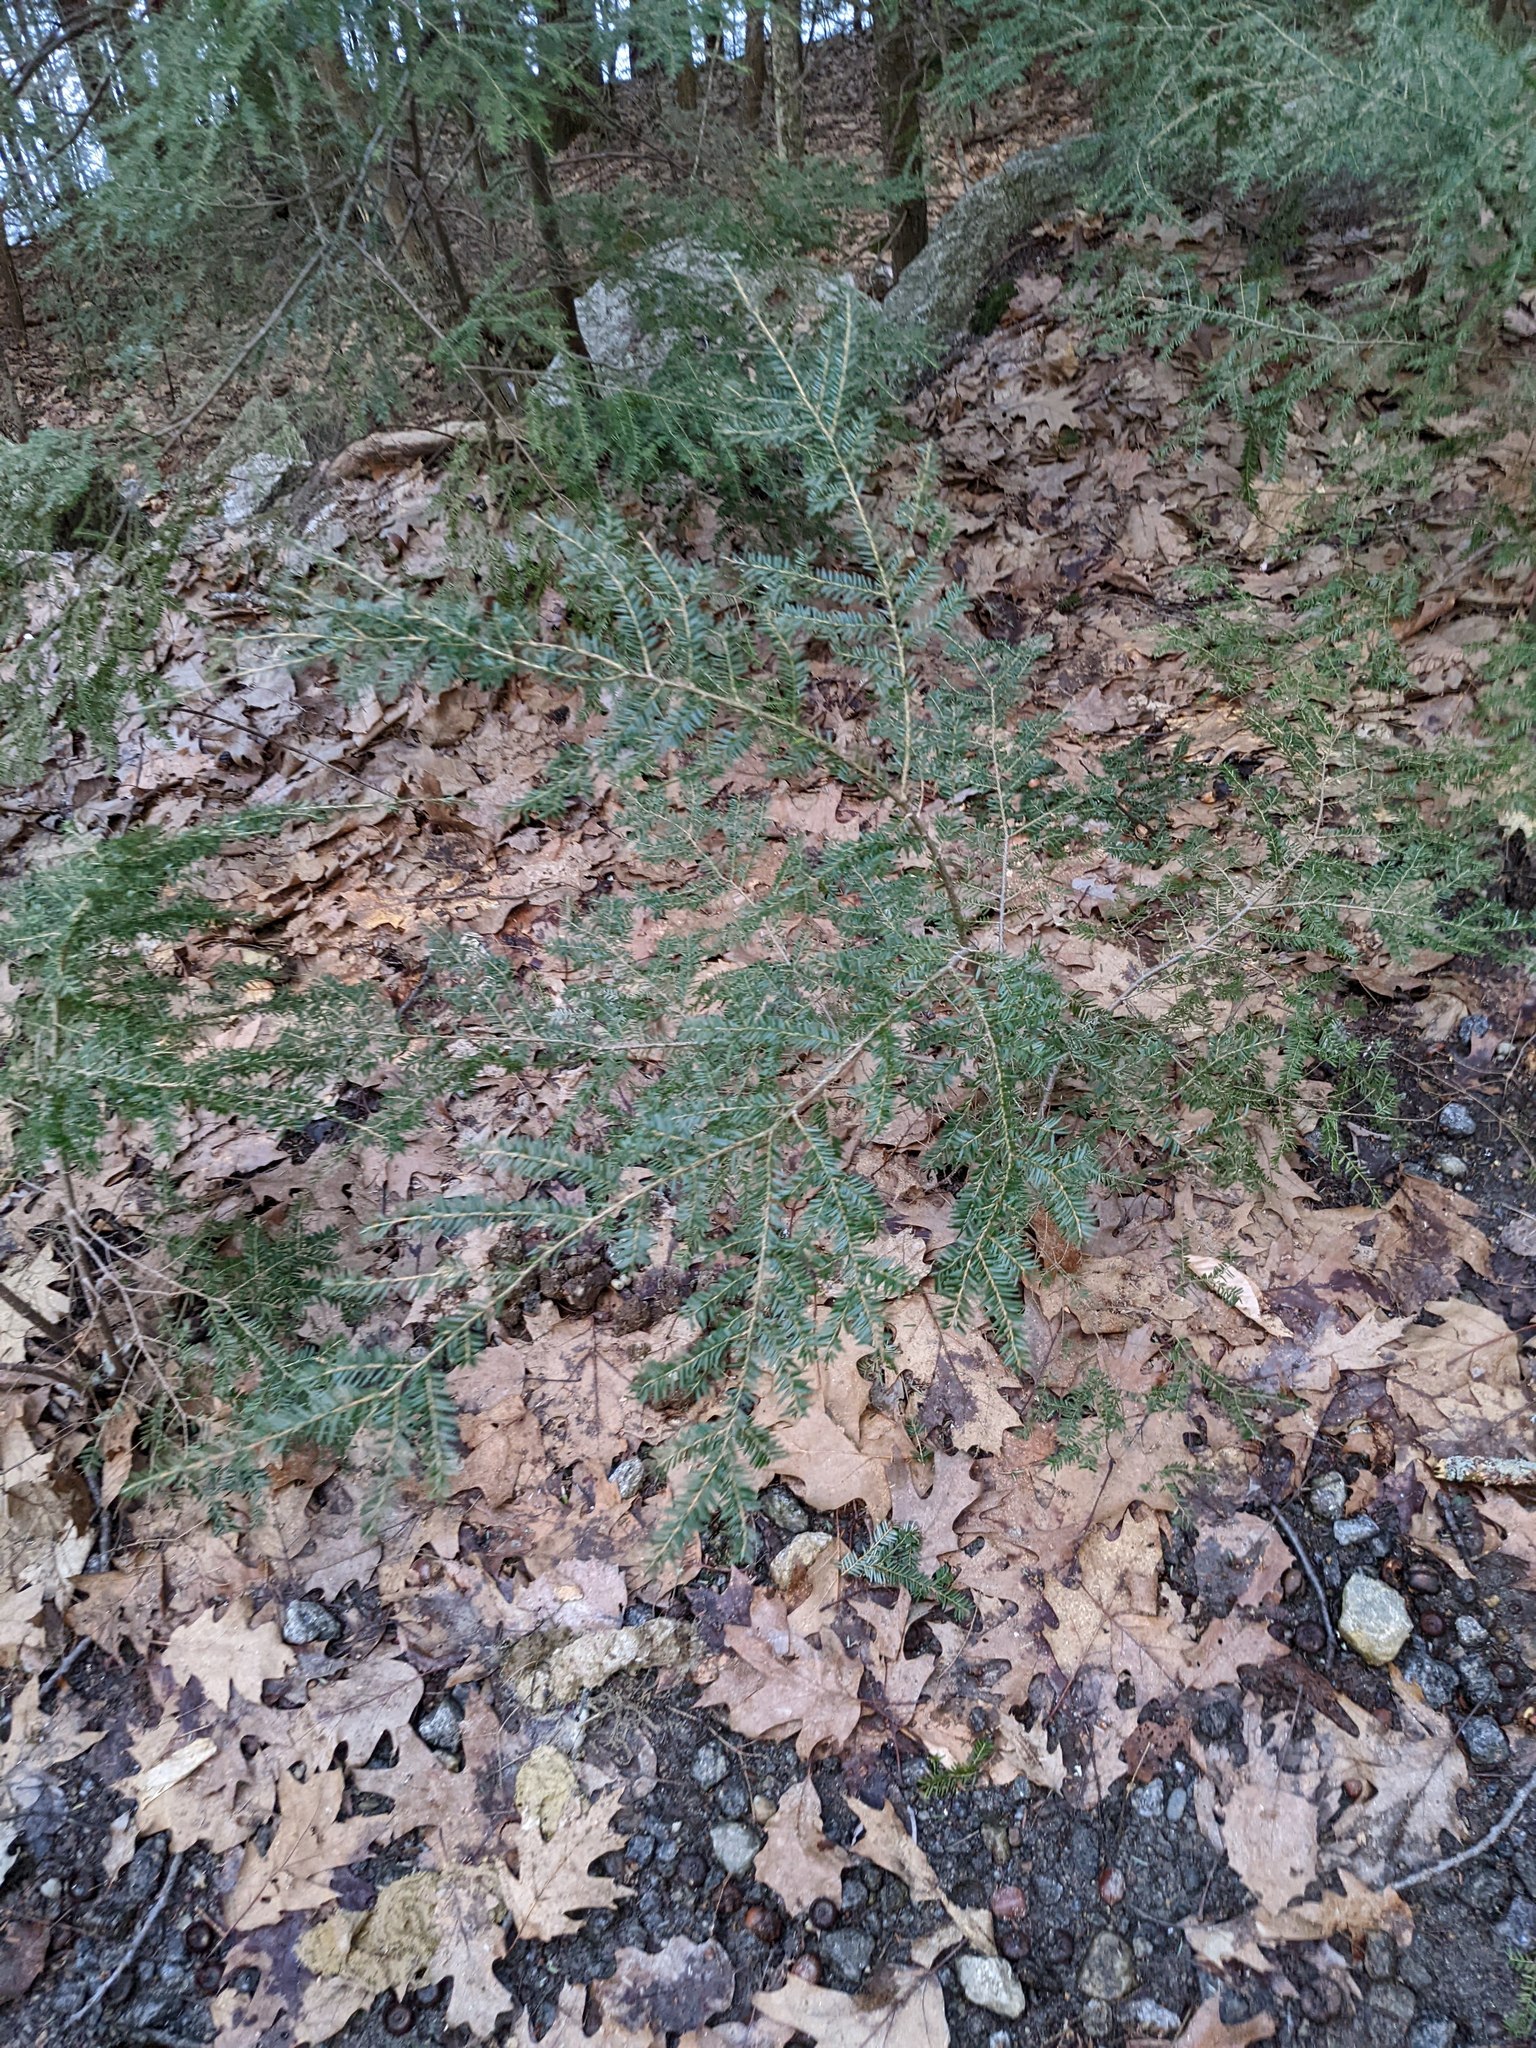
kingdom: Plantae
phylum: Tracheophyta
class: Pinopsida
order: Pinales
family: Pinaceae
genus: Tsuga
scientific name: Tsuga canadensis
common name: Eastern hemlock
